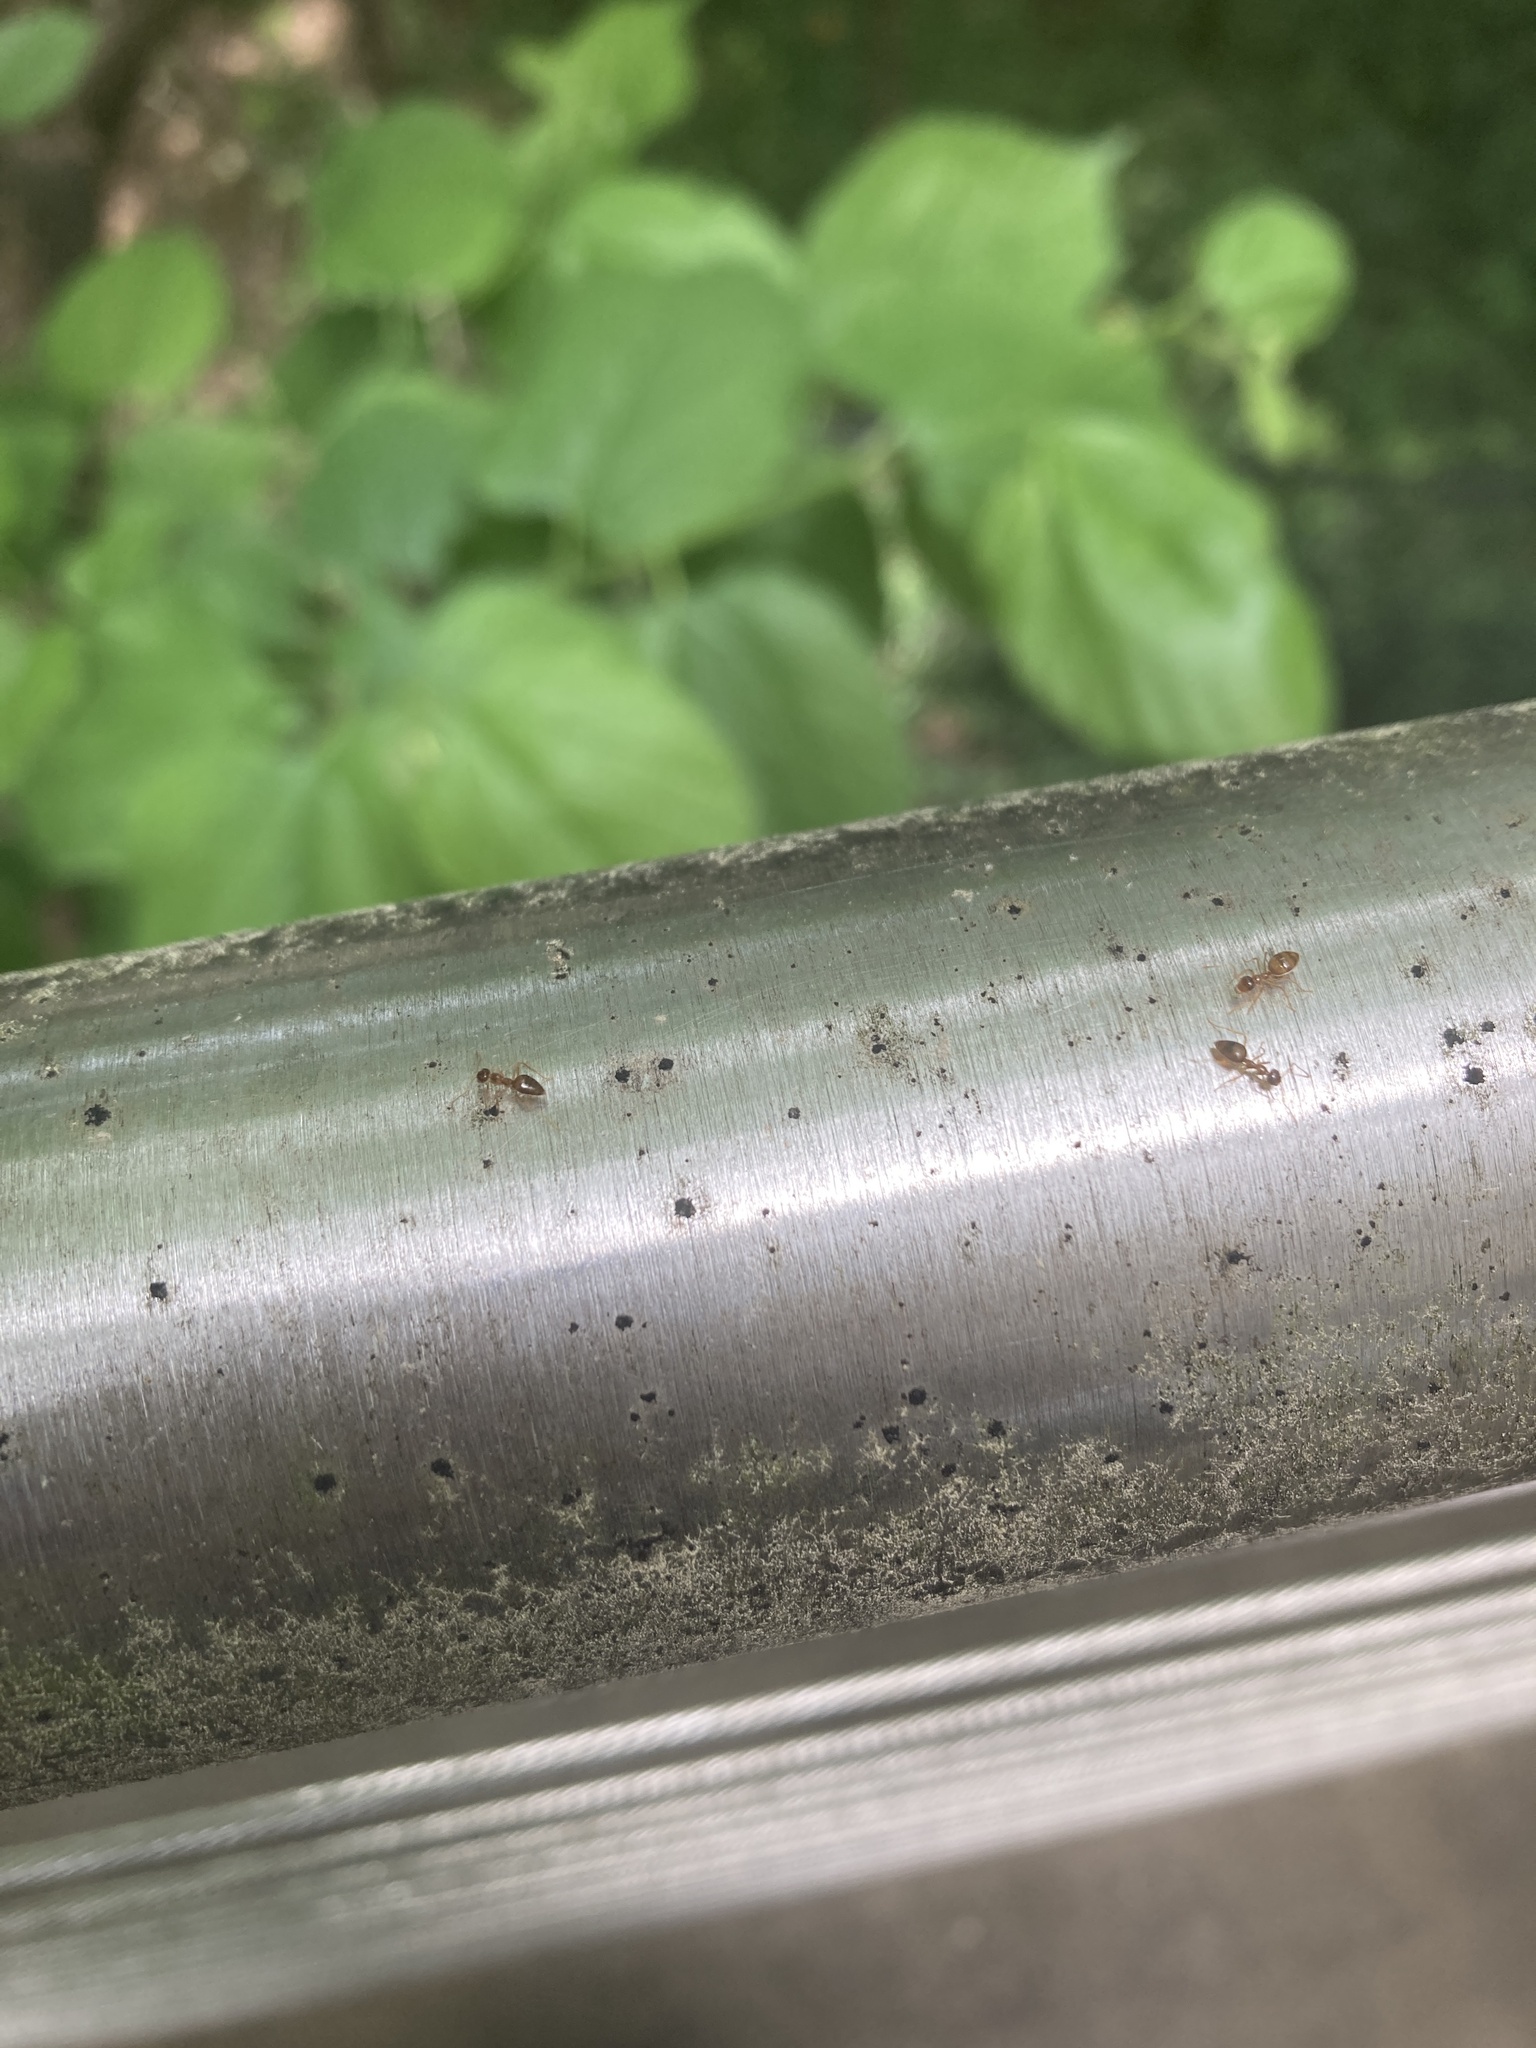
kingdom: Animalia
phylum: Arthropoda
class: Insecta
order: Hymenoptera
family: Formicidae
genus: Prenolepis
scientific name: Prenolepis imparis
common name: Small honey ant
